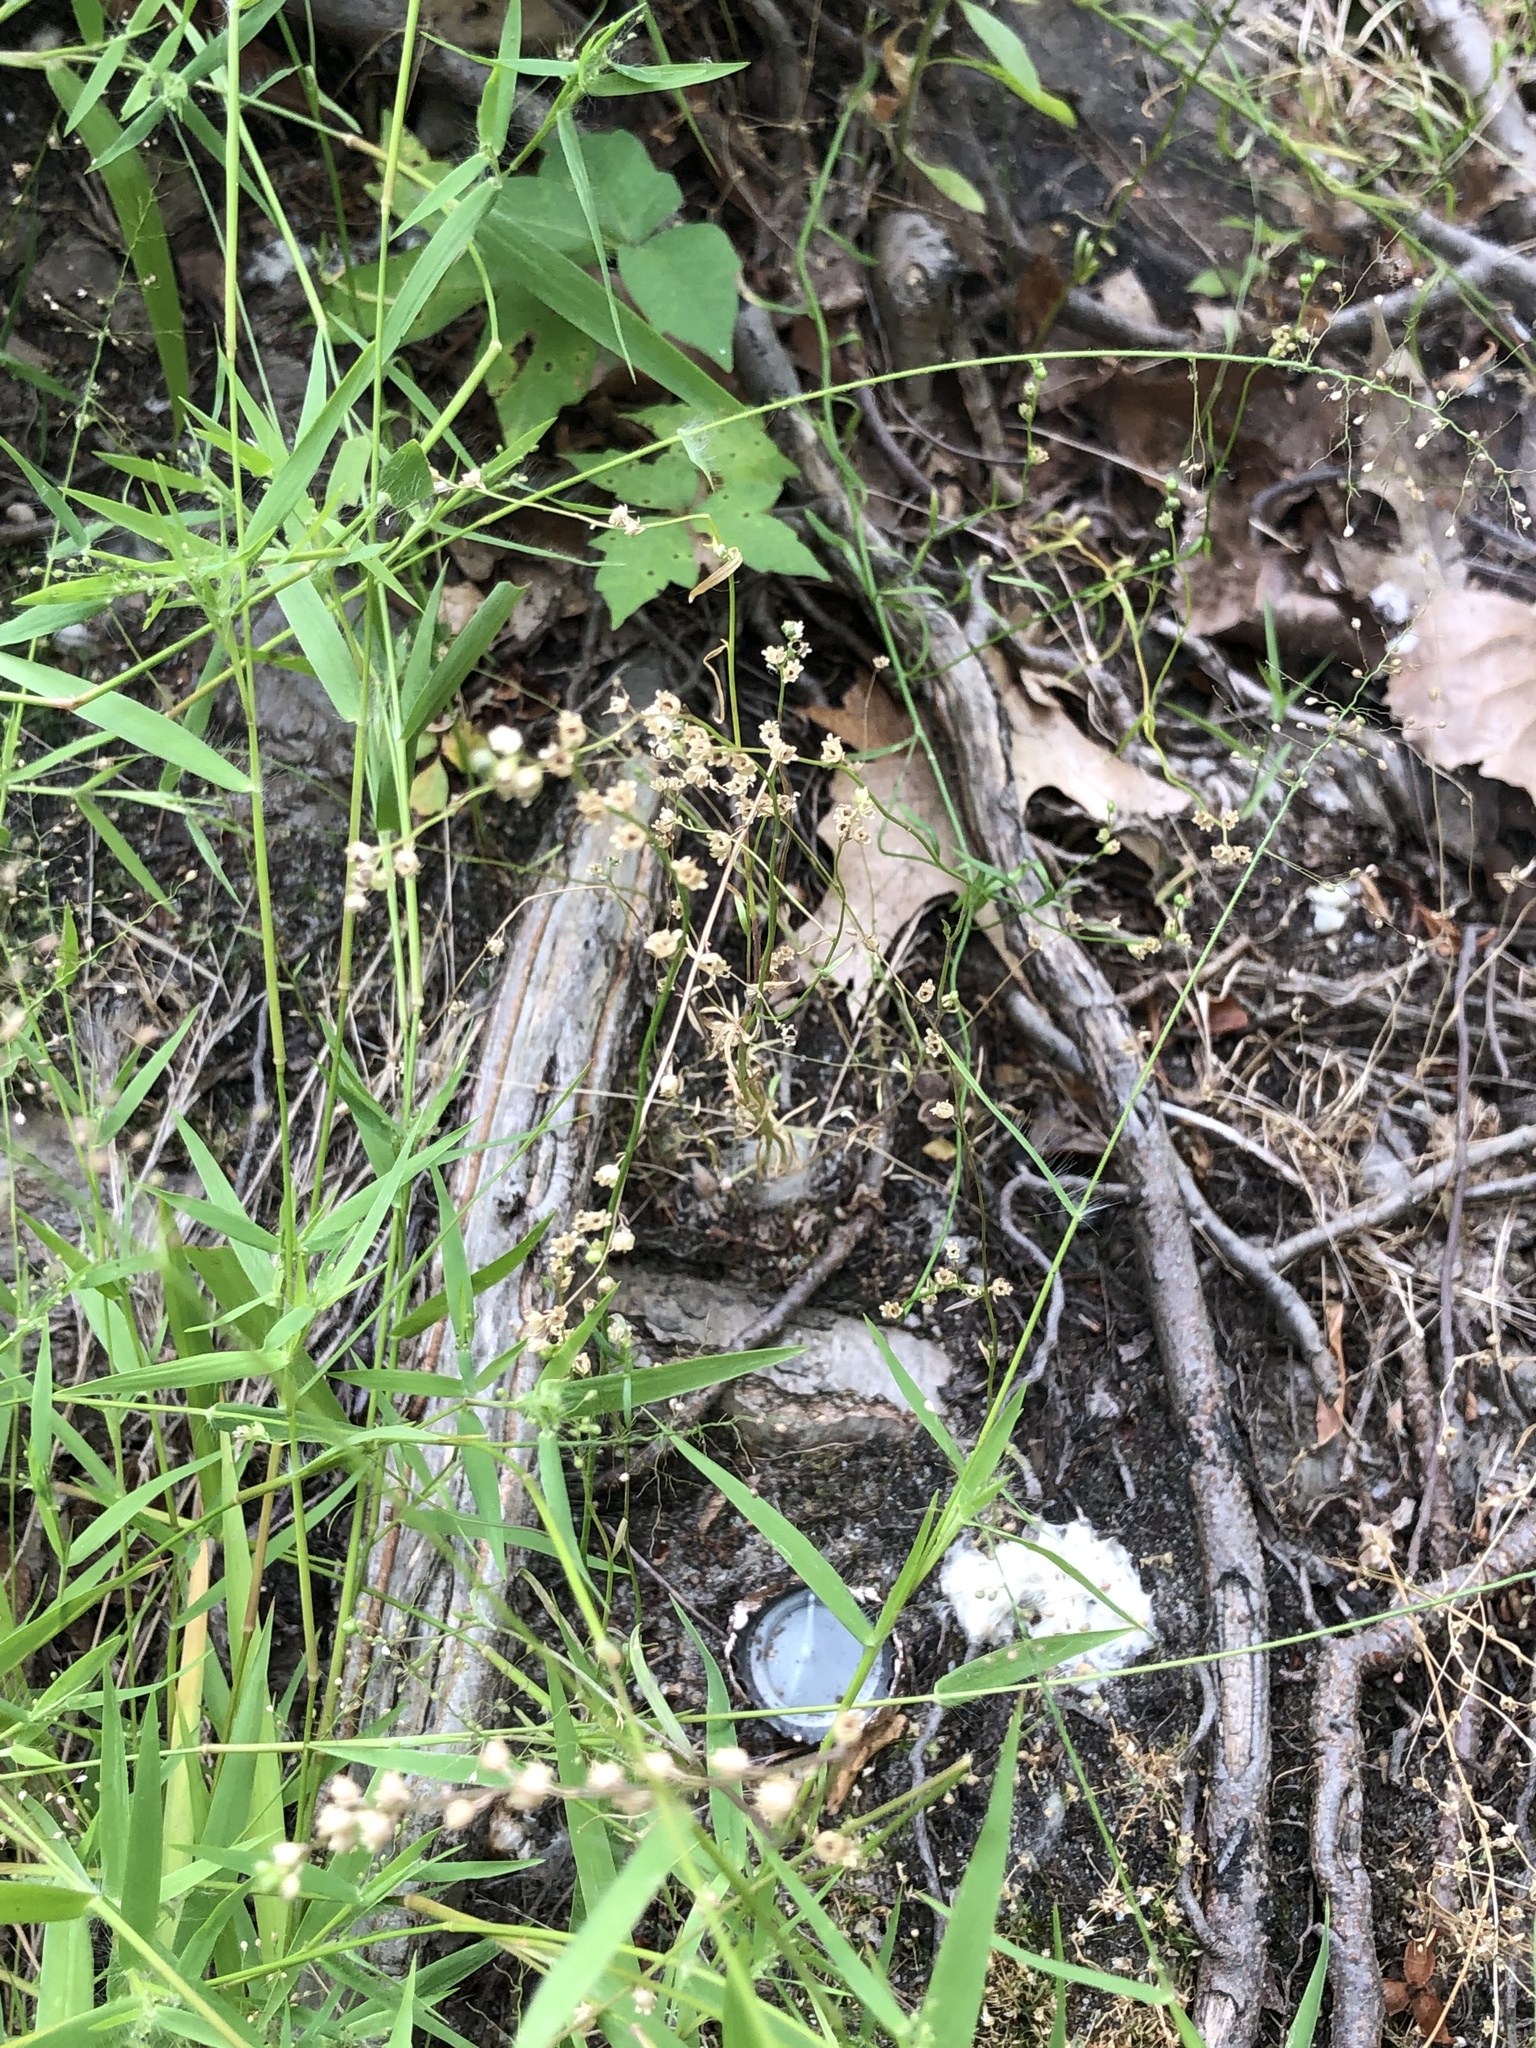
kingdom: Plantae
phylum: Tracheophyta
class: Magnoliopsida
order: Lamiales
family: Plantaginaceae
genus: Nuttallanthus
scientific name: Nuttallanthus canadensis
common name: Blue toadflax
